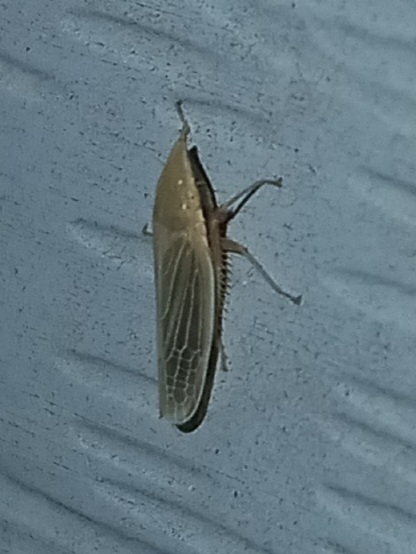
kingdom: Animalia
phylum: Arthropoda
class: Insecta
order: Hemiptera
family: Cicadellidae
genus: Draeculacephala
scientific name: Draeculacephala antica
